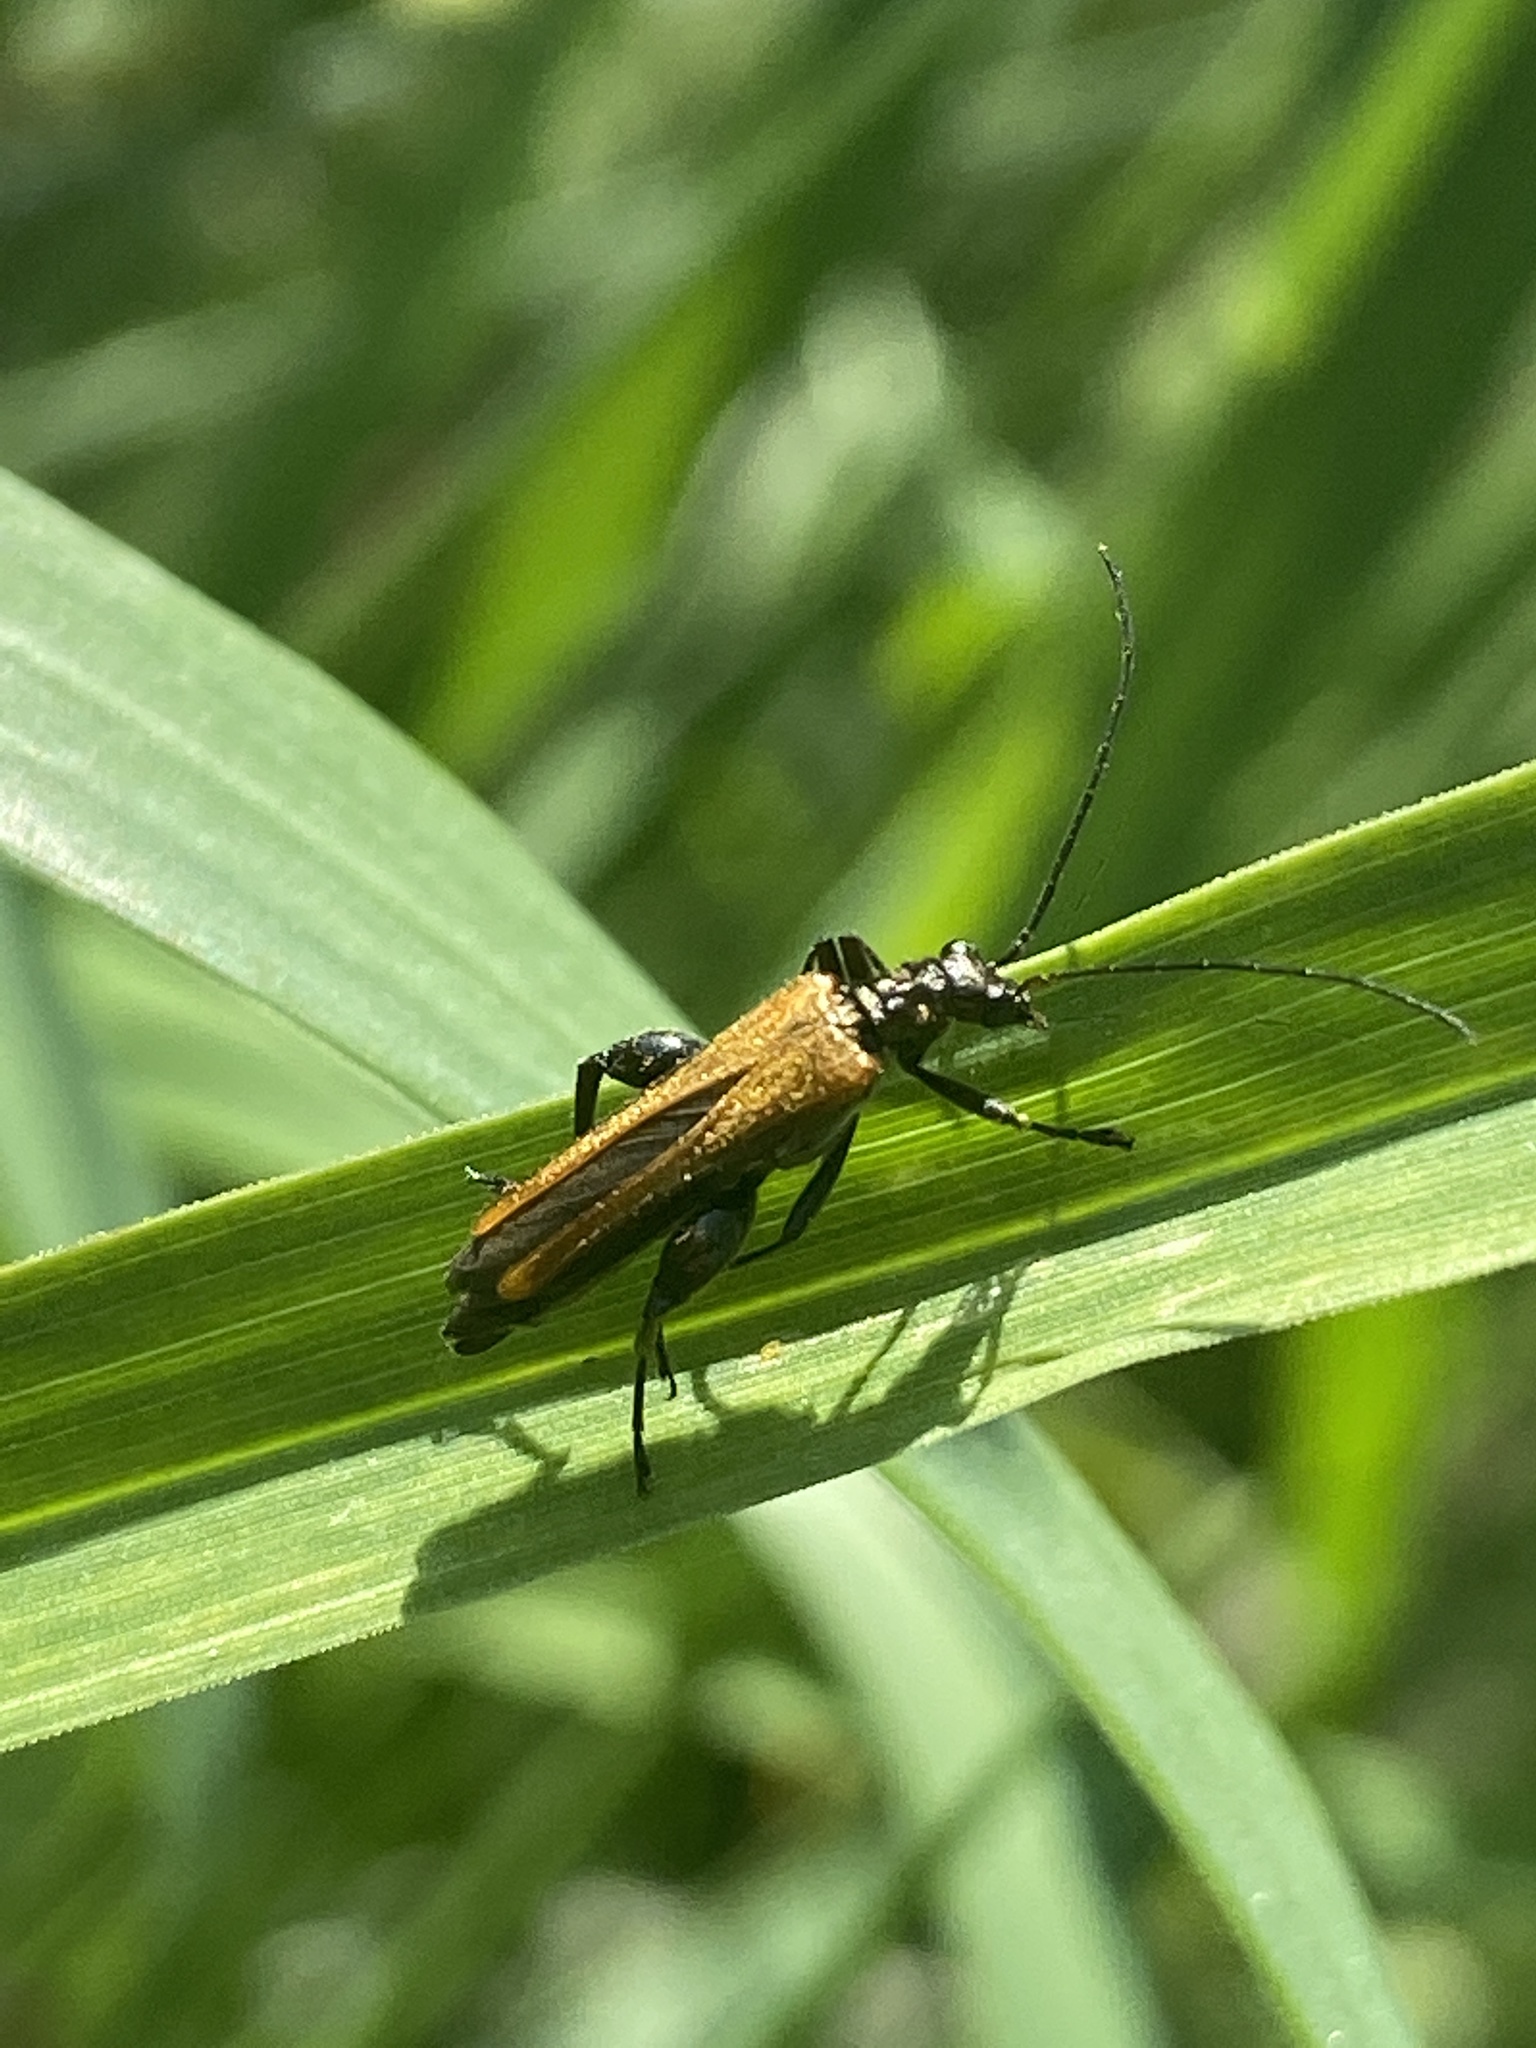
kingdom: Animalia
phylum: Arthropoda
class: Insecta
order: Coleoptera
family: Oedemeridae
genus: Oedemera
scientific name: Oedemera femorata
